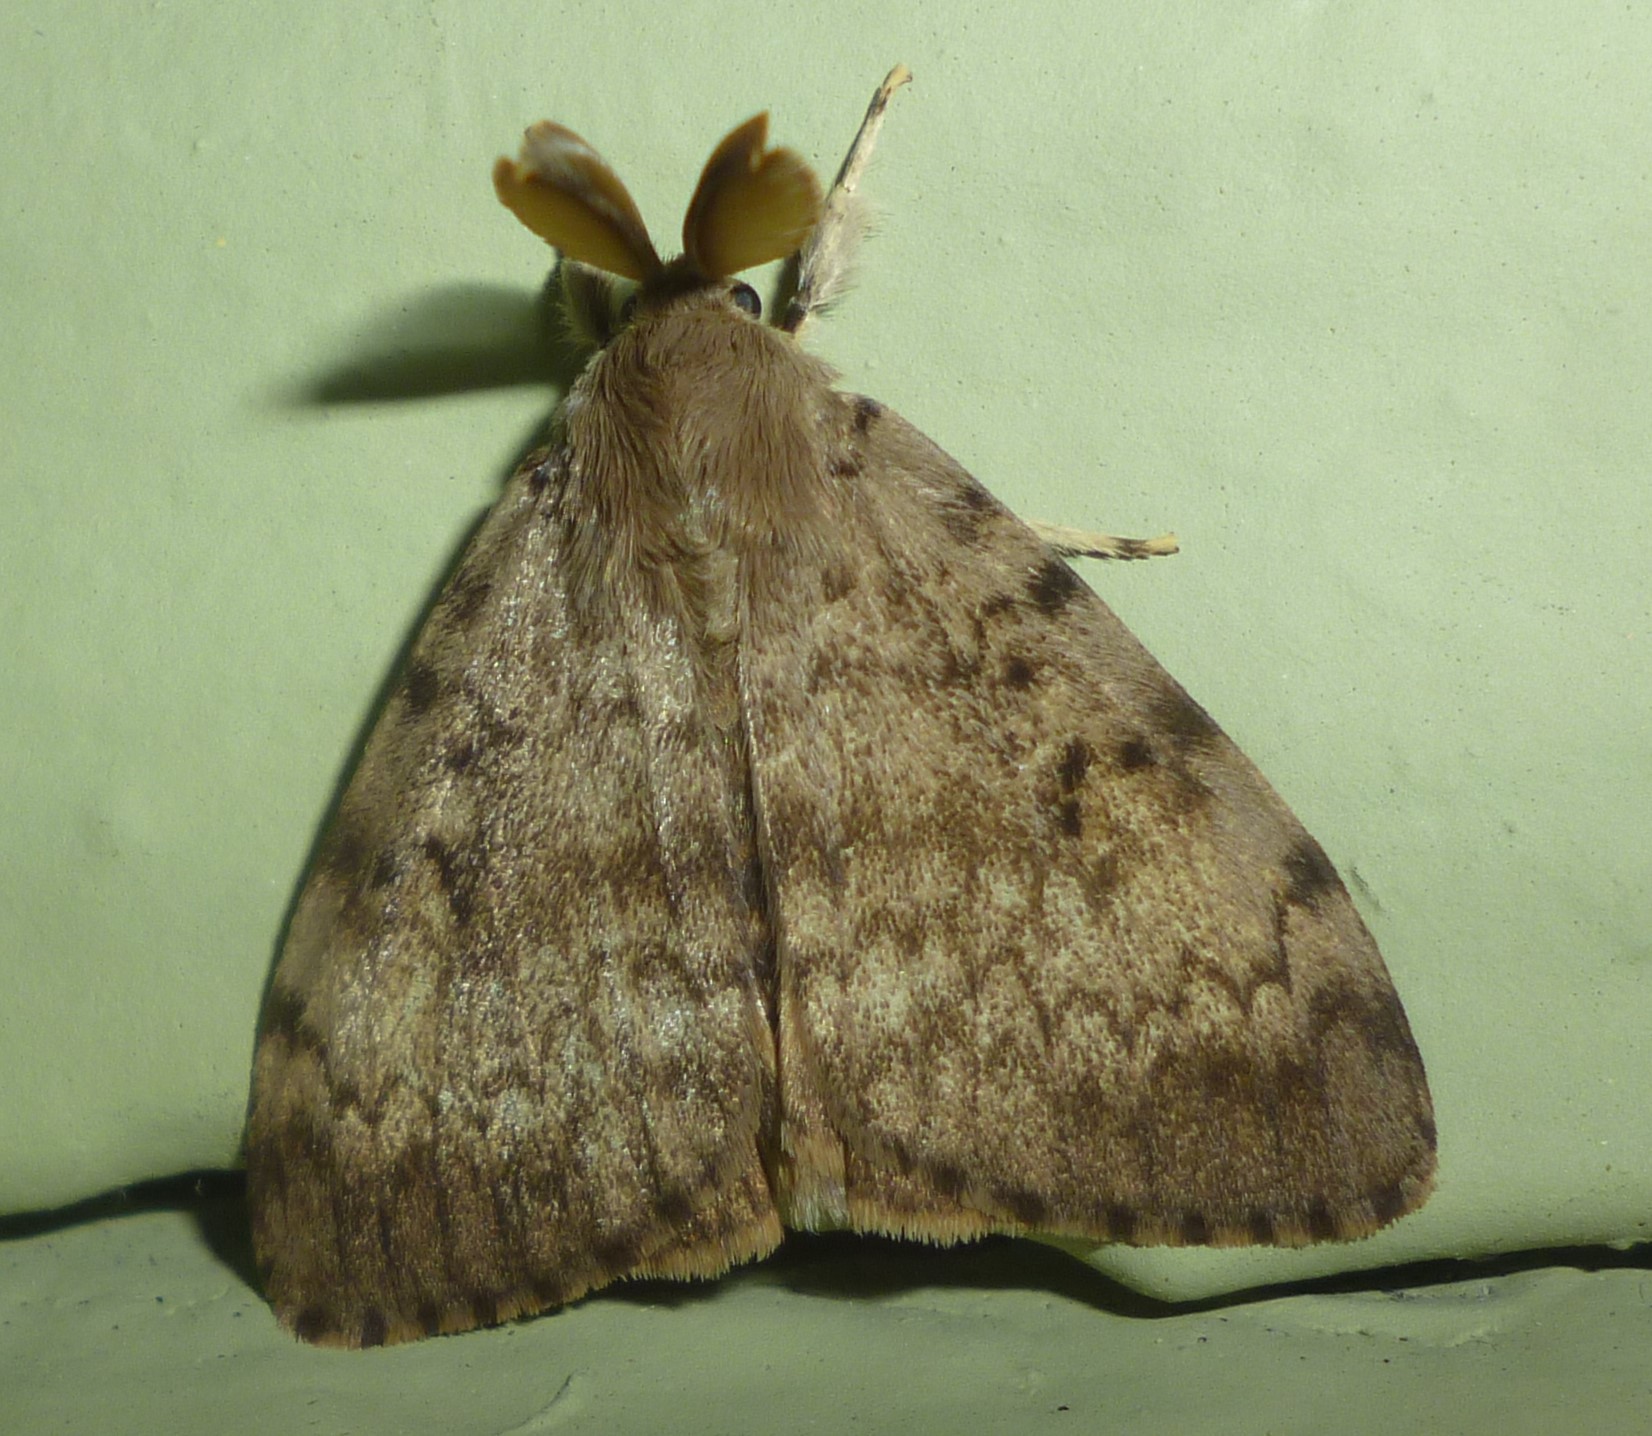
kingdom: Animalia
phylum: Arthropoda
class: Insecta
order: Lepidoptera
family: Erebidae
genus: Lymantria
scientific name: Lymantria dispar
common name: Gypsy moth
